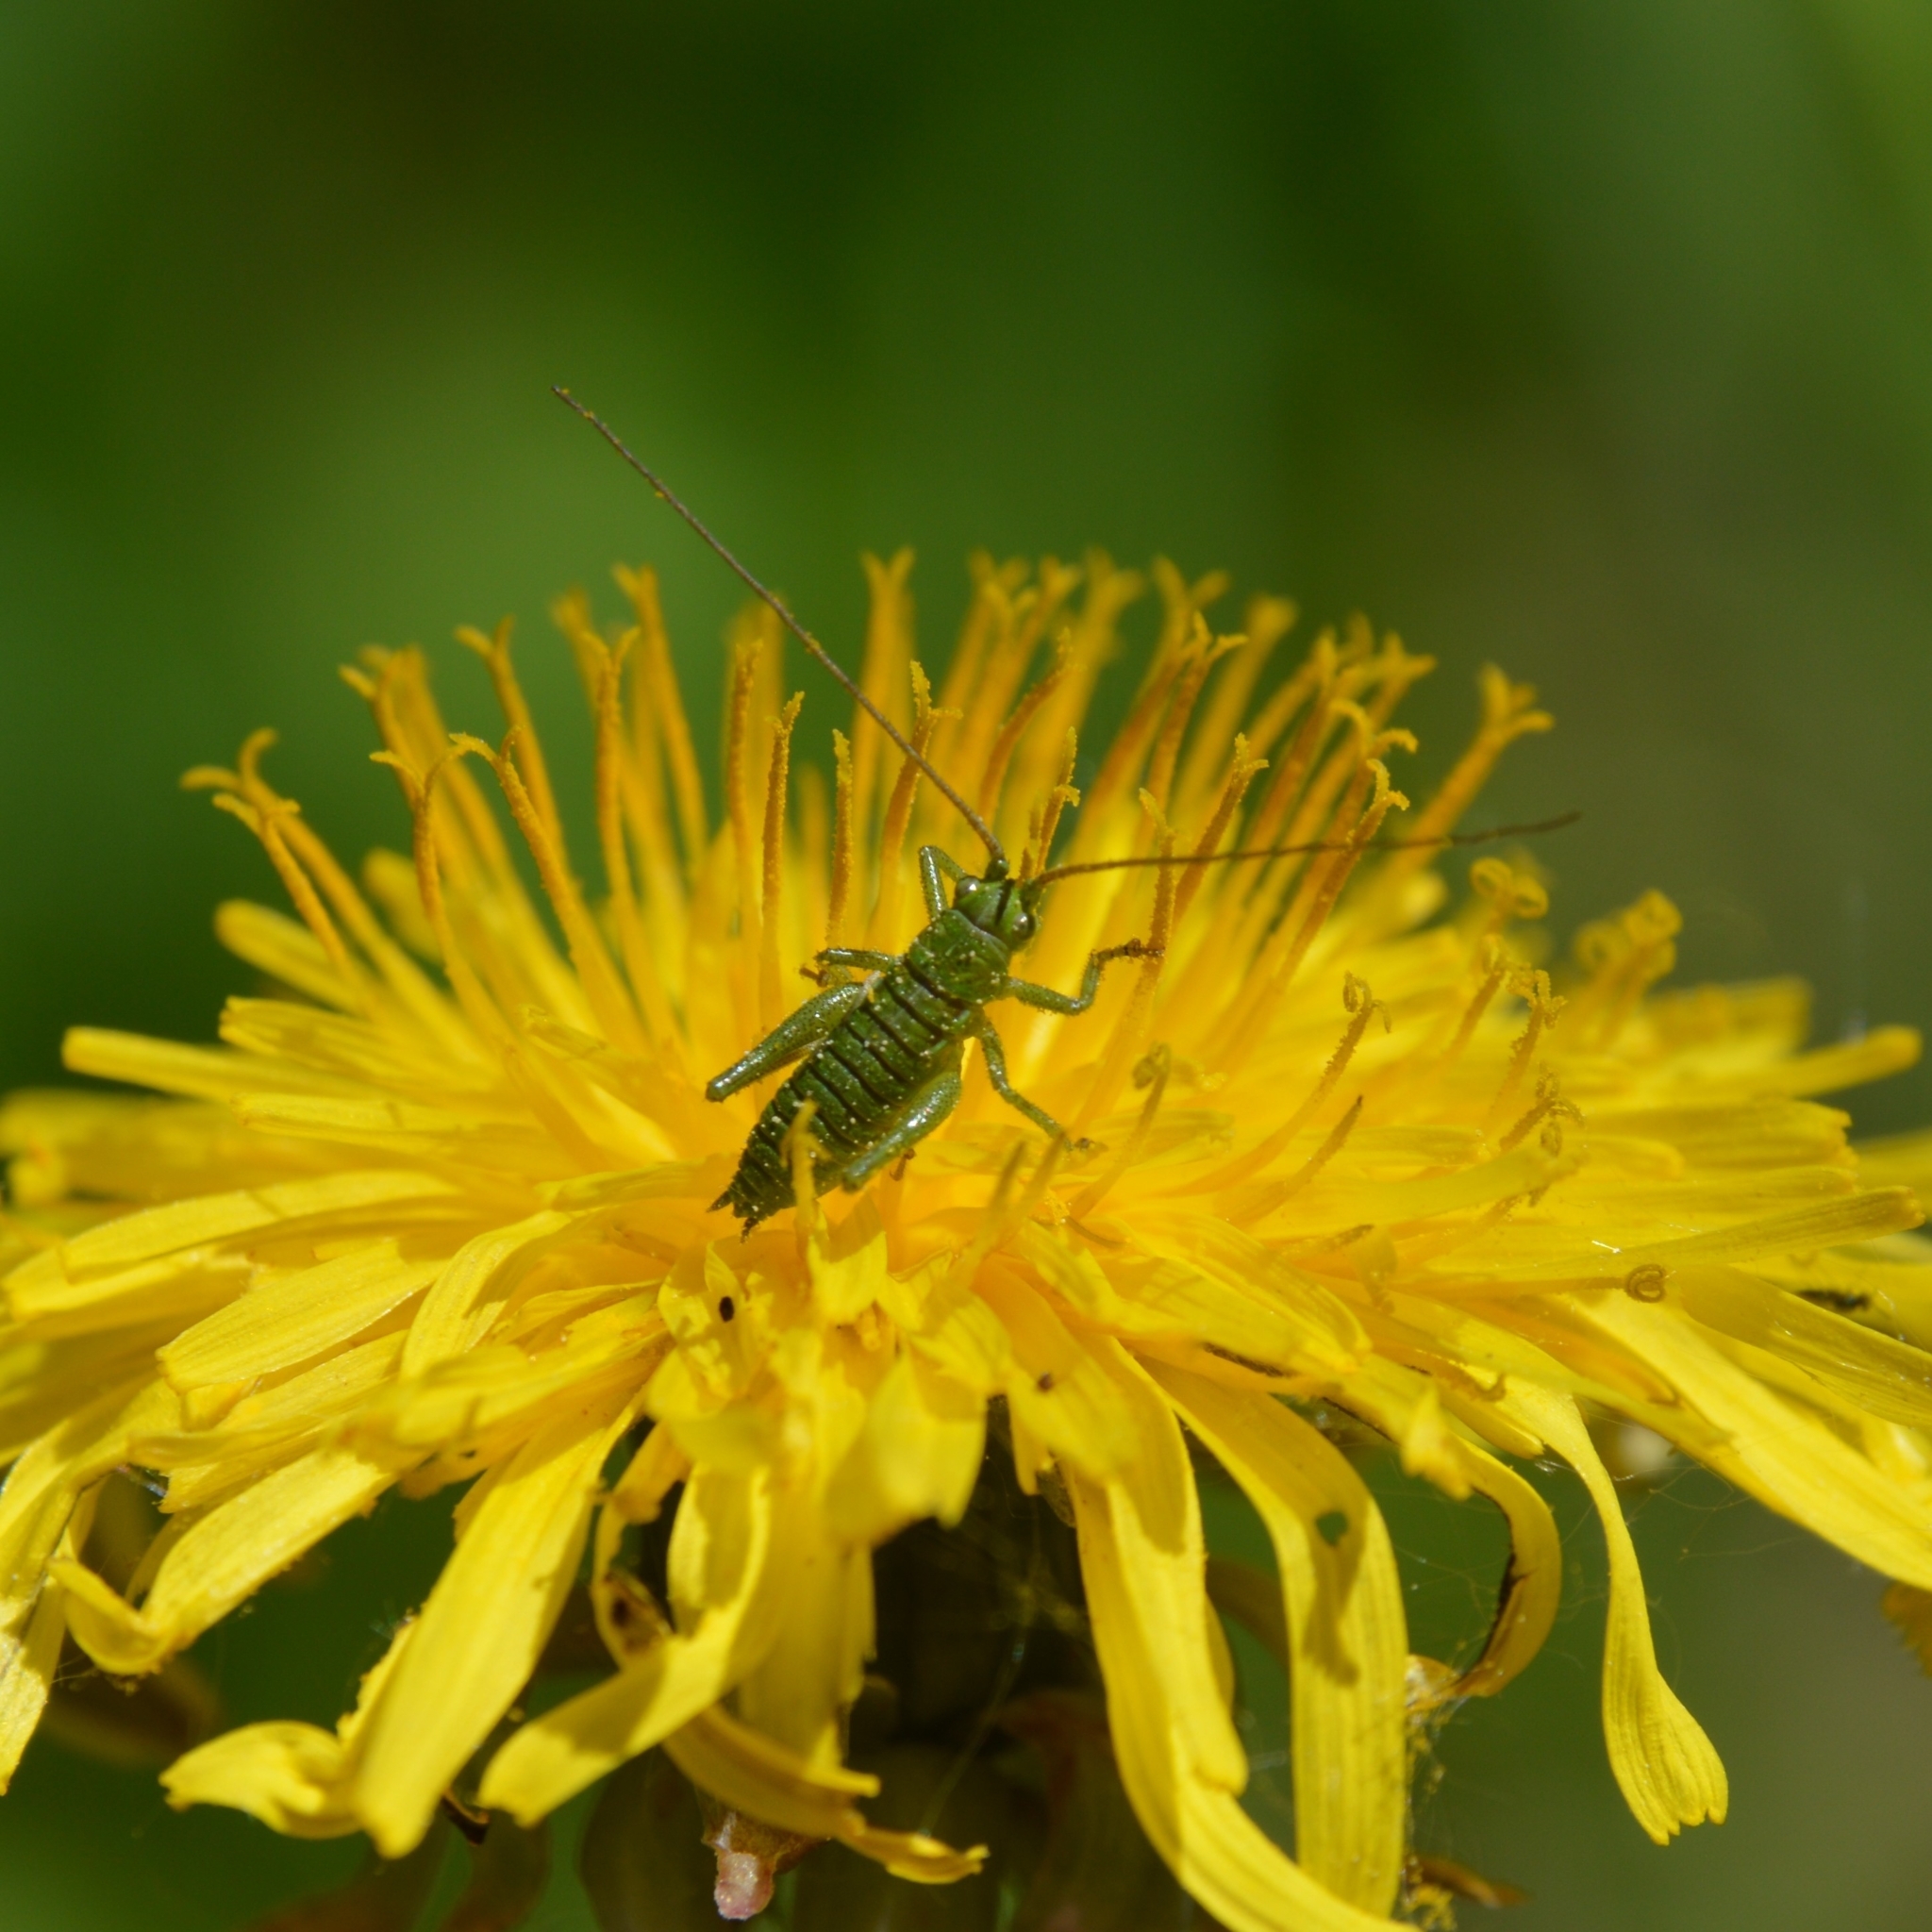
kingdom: Animalia
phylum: Arthropoda
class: Insecta
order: Orthoptera
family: Tettigoniidae
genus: Tettigonia
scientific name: Tettigonia cantans
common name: Upland green bush-cricket
